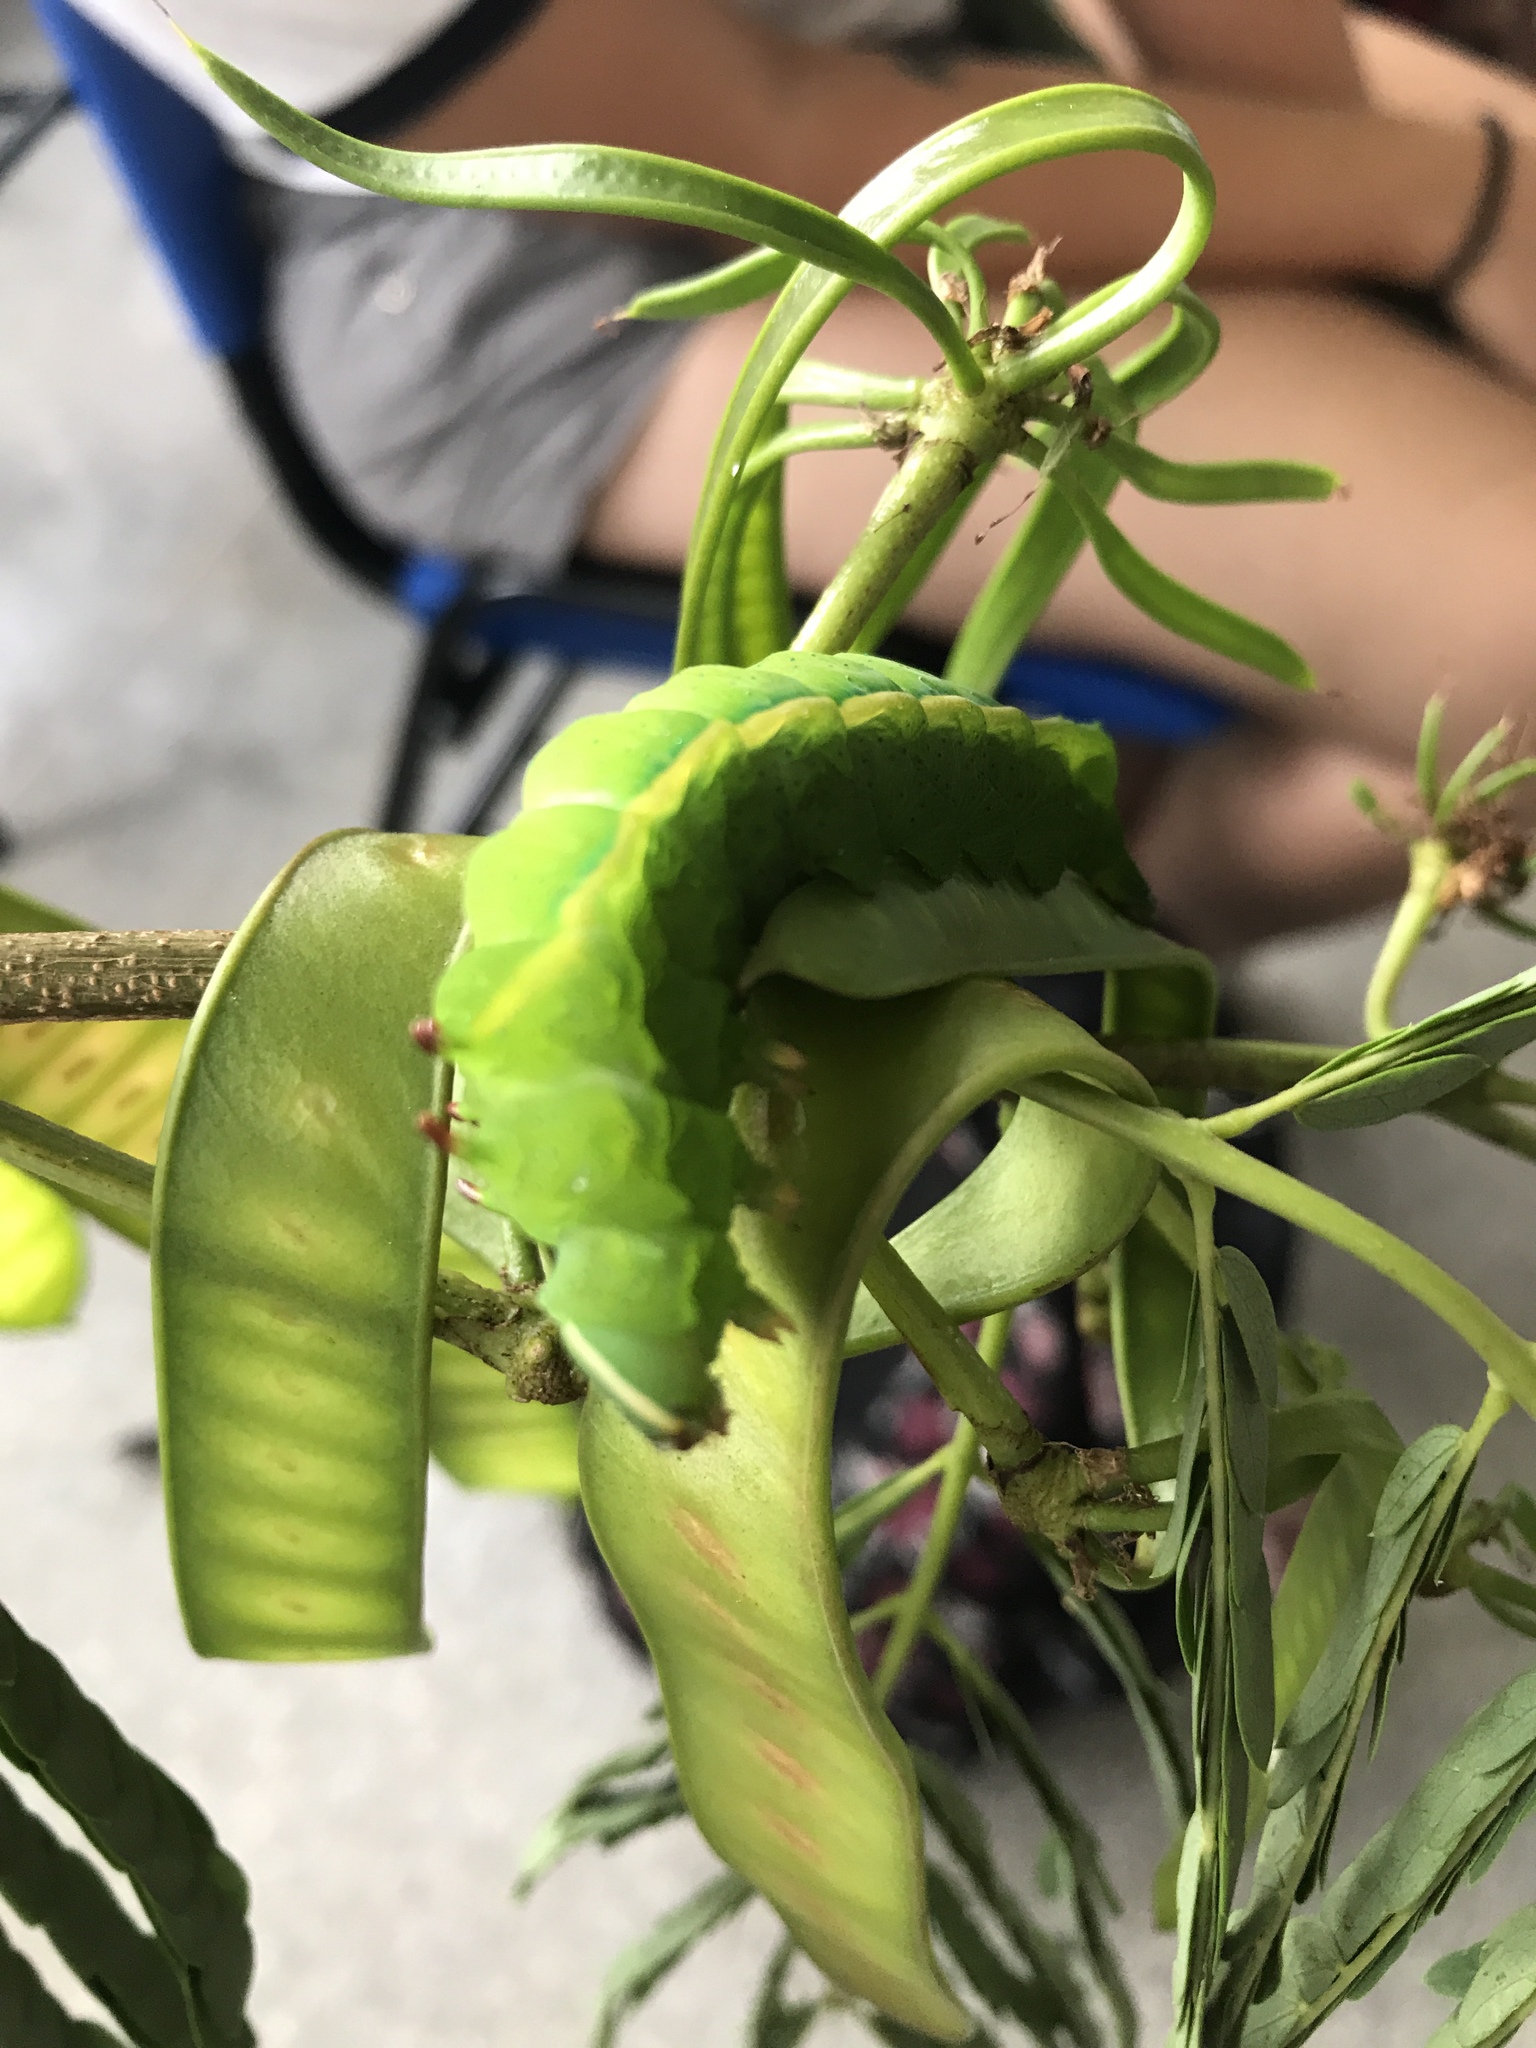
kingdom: Animalia
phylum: Arthropoda
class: Insecta
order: Lepidoptera
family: Saturniidae
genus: Syssphinx
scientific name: Syssphinx molina
